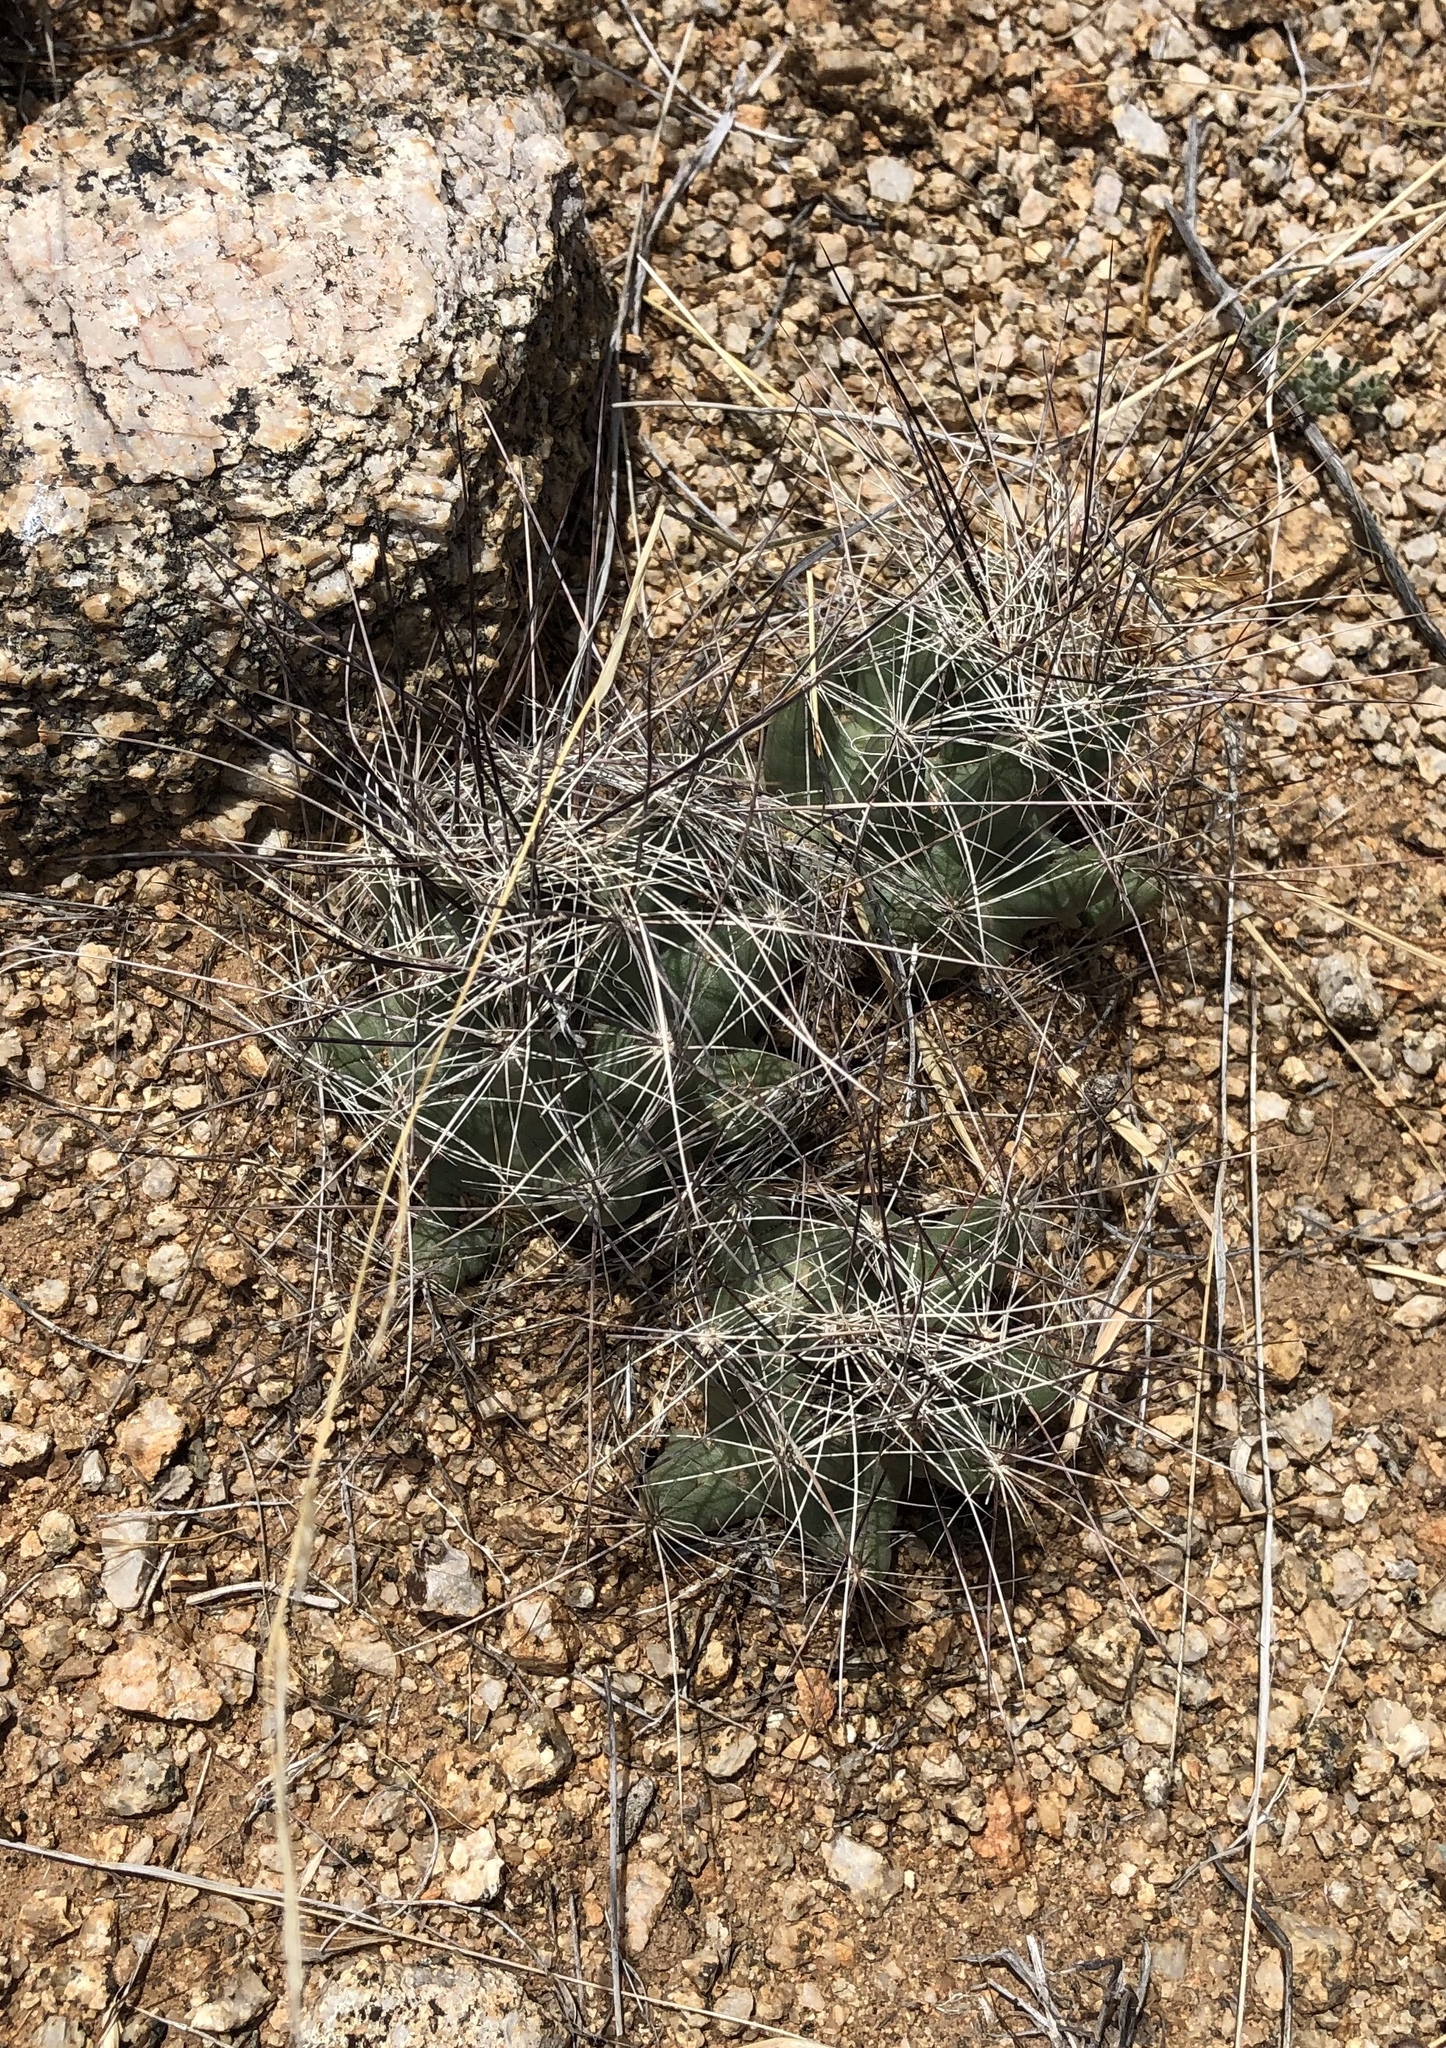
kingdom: Plantae
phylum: Tracheophyta
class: Magnoliopsida
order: Caryophyllales
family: Cactaceae
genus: Coryphantha
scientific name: Coryphantha macromeris
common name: Nipple beehive cactus
